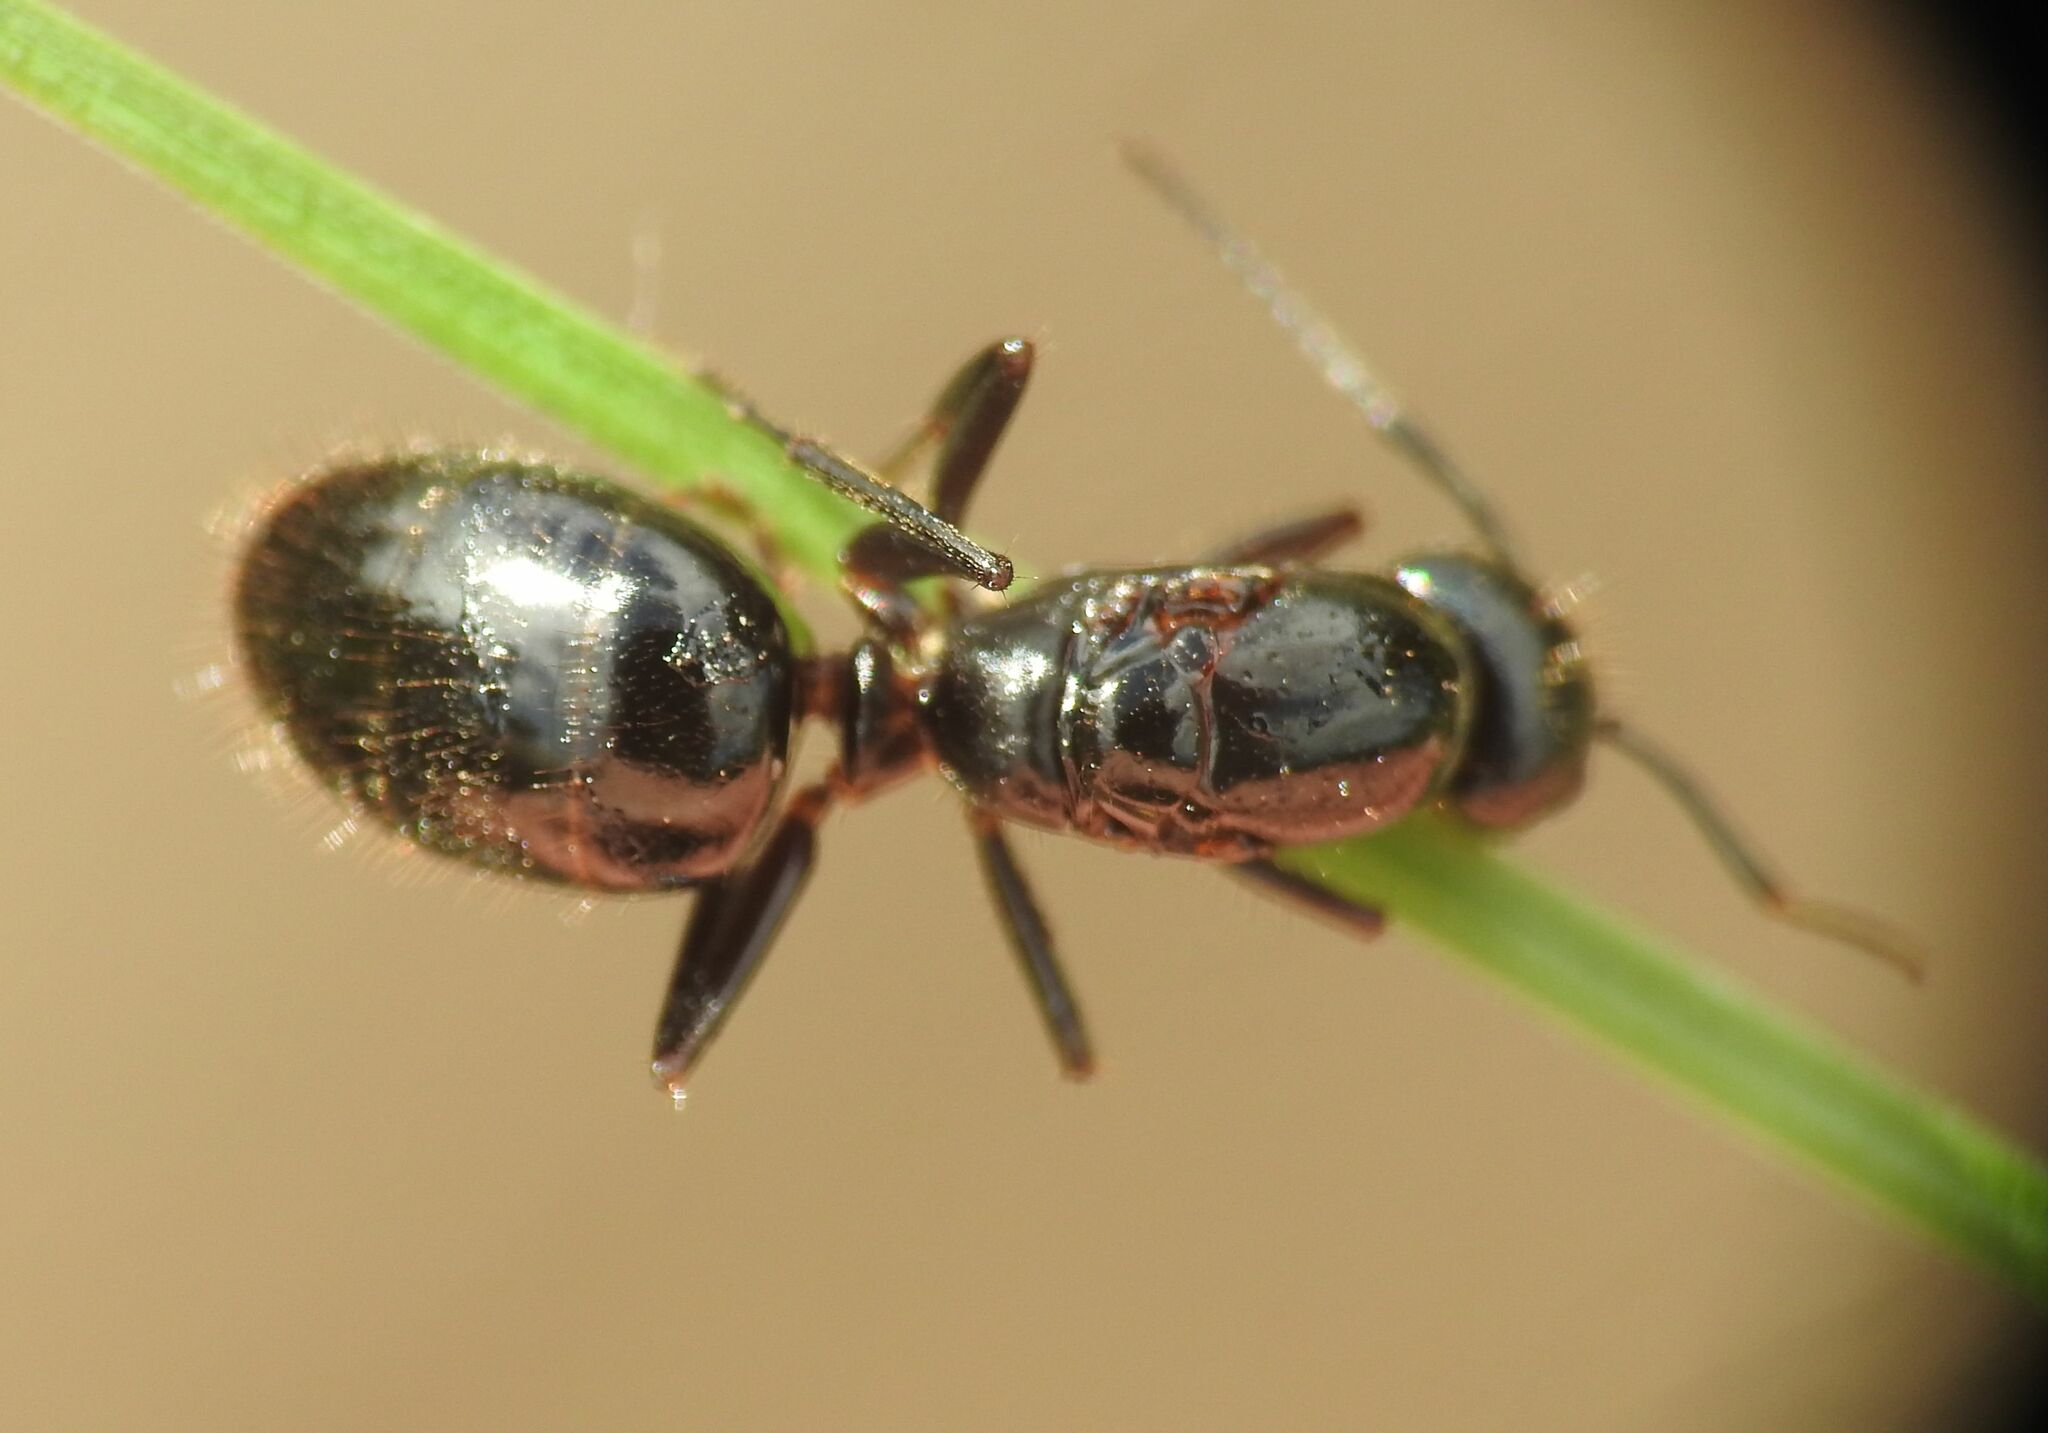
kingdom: Animalia
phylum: Arthropoda
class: Insecta
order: Hymenoptera
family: Formicidae
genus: Camponotus
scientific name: Camponotus aethiops
